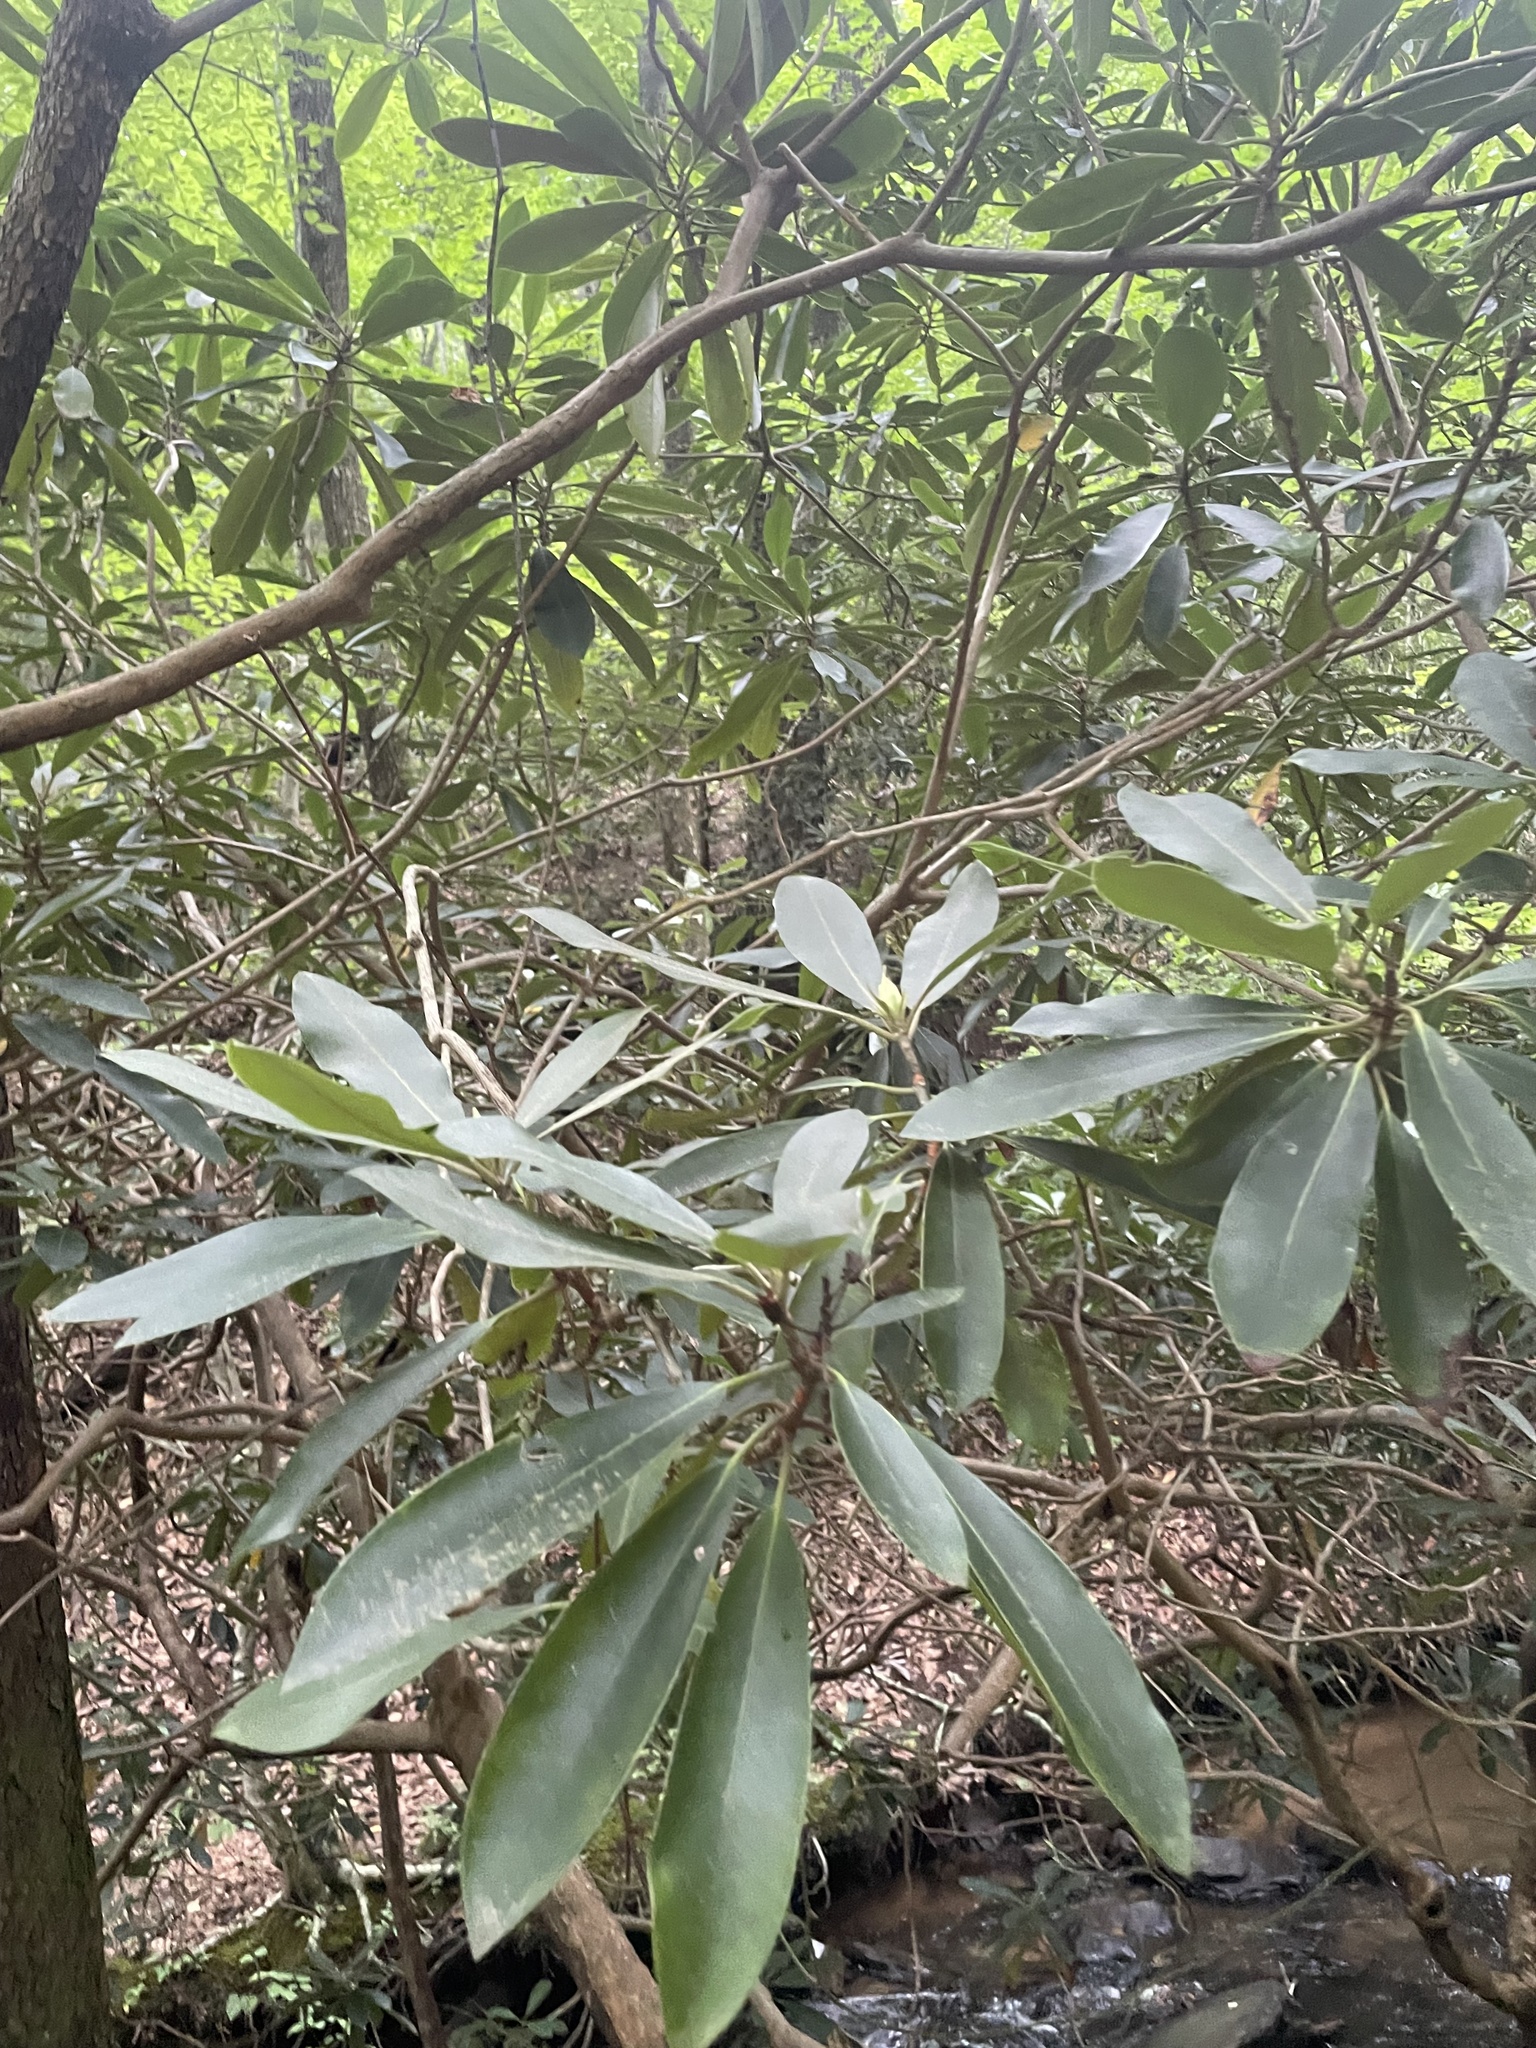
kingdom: Plantae
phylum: Tracheophyta
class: Magnoliopsida
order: Ericales
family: Ericaceae
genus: Rhododendron
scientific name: Rhododendron maximum
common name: Great rhododendron
